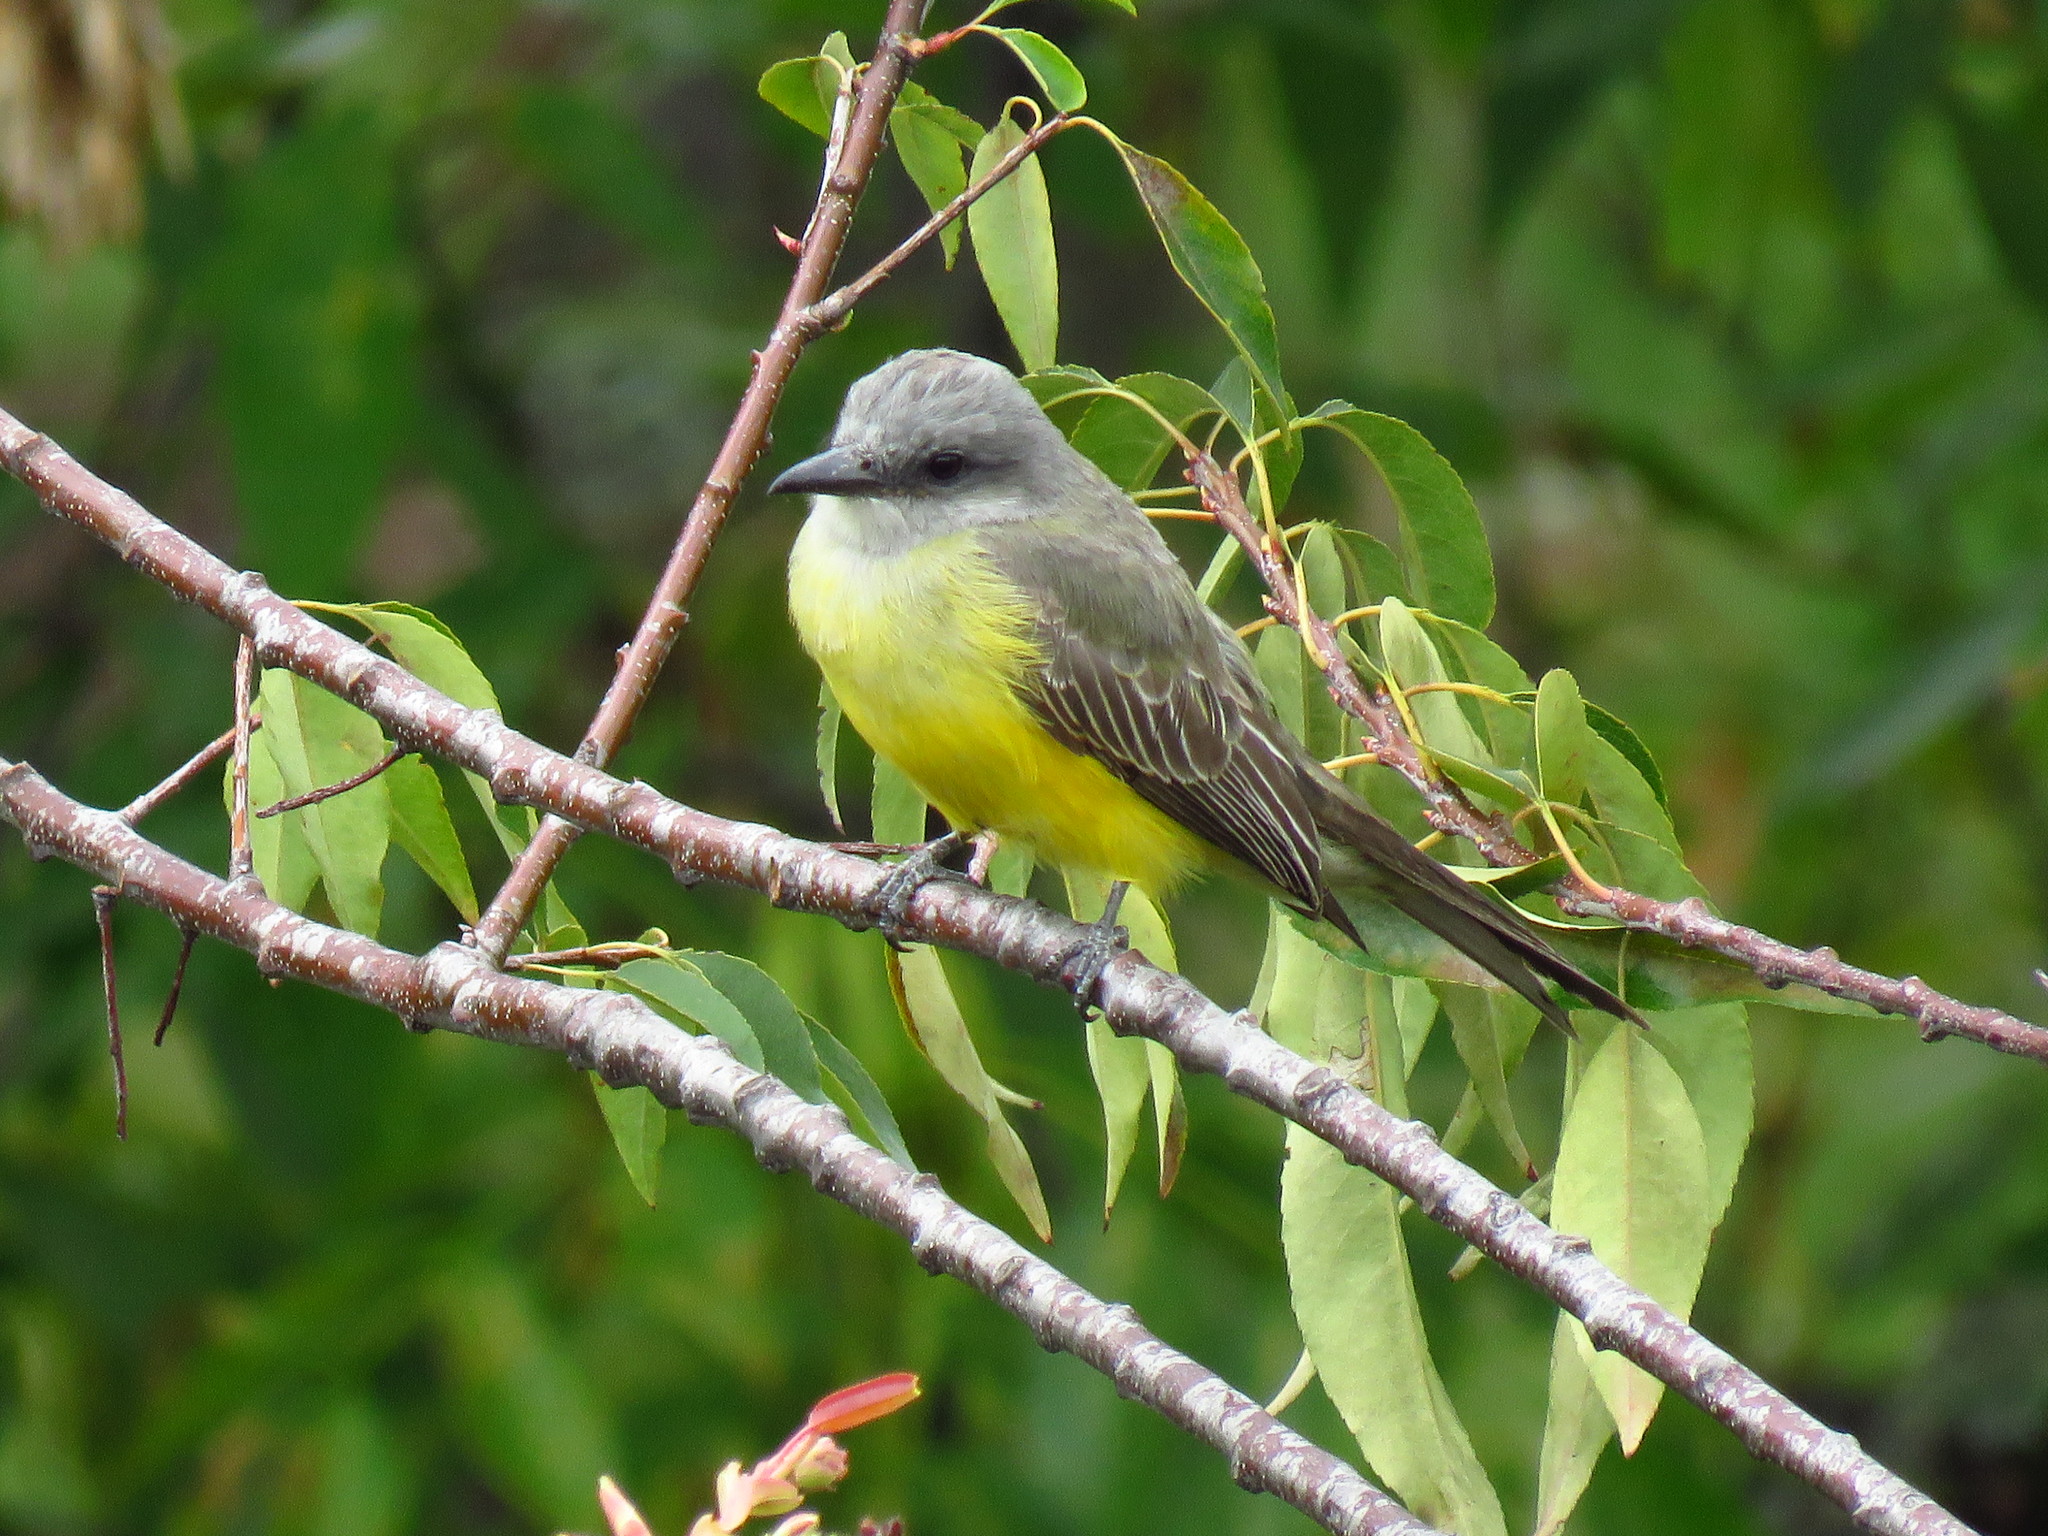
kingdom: Animalia
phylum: Chordata
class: Aves
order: Passeriformes
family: Tyrannidae
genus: Tyrannus
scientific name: Tyrannus melancholicus
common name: Tropical kingbird
